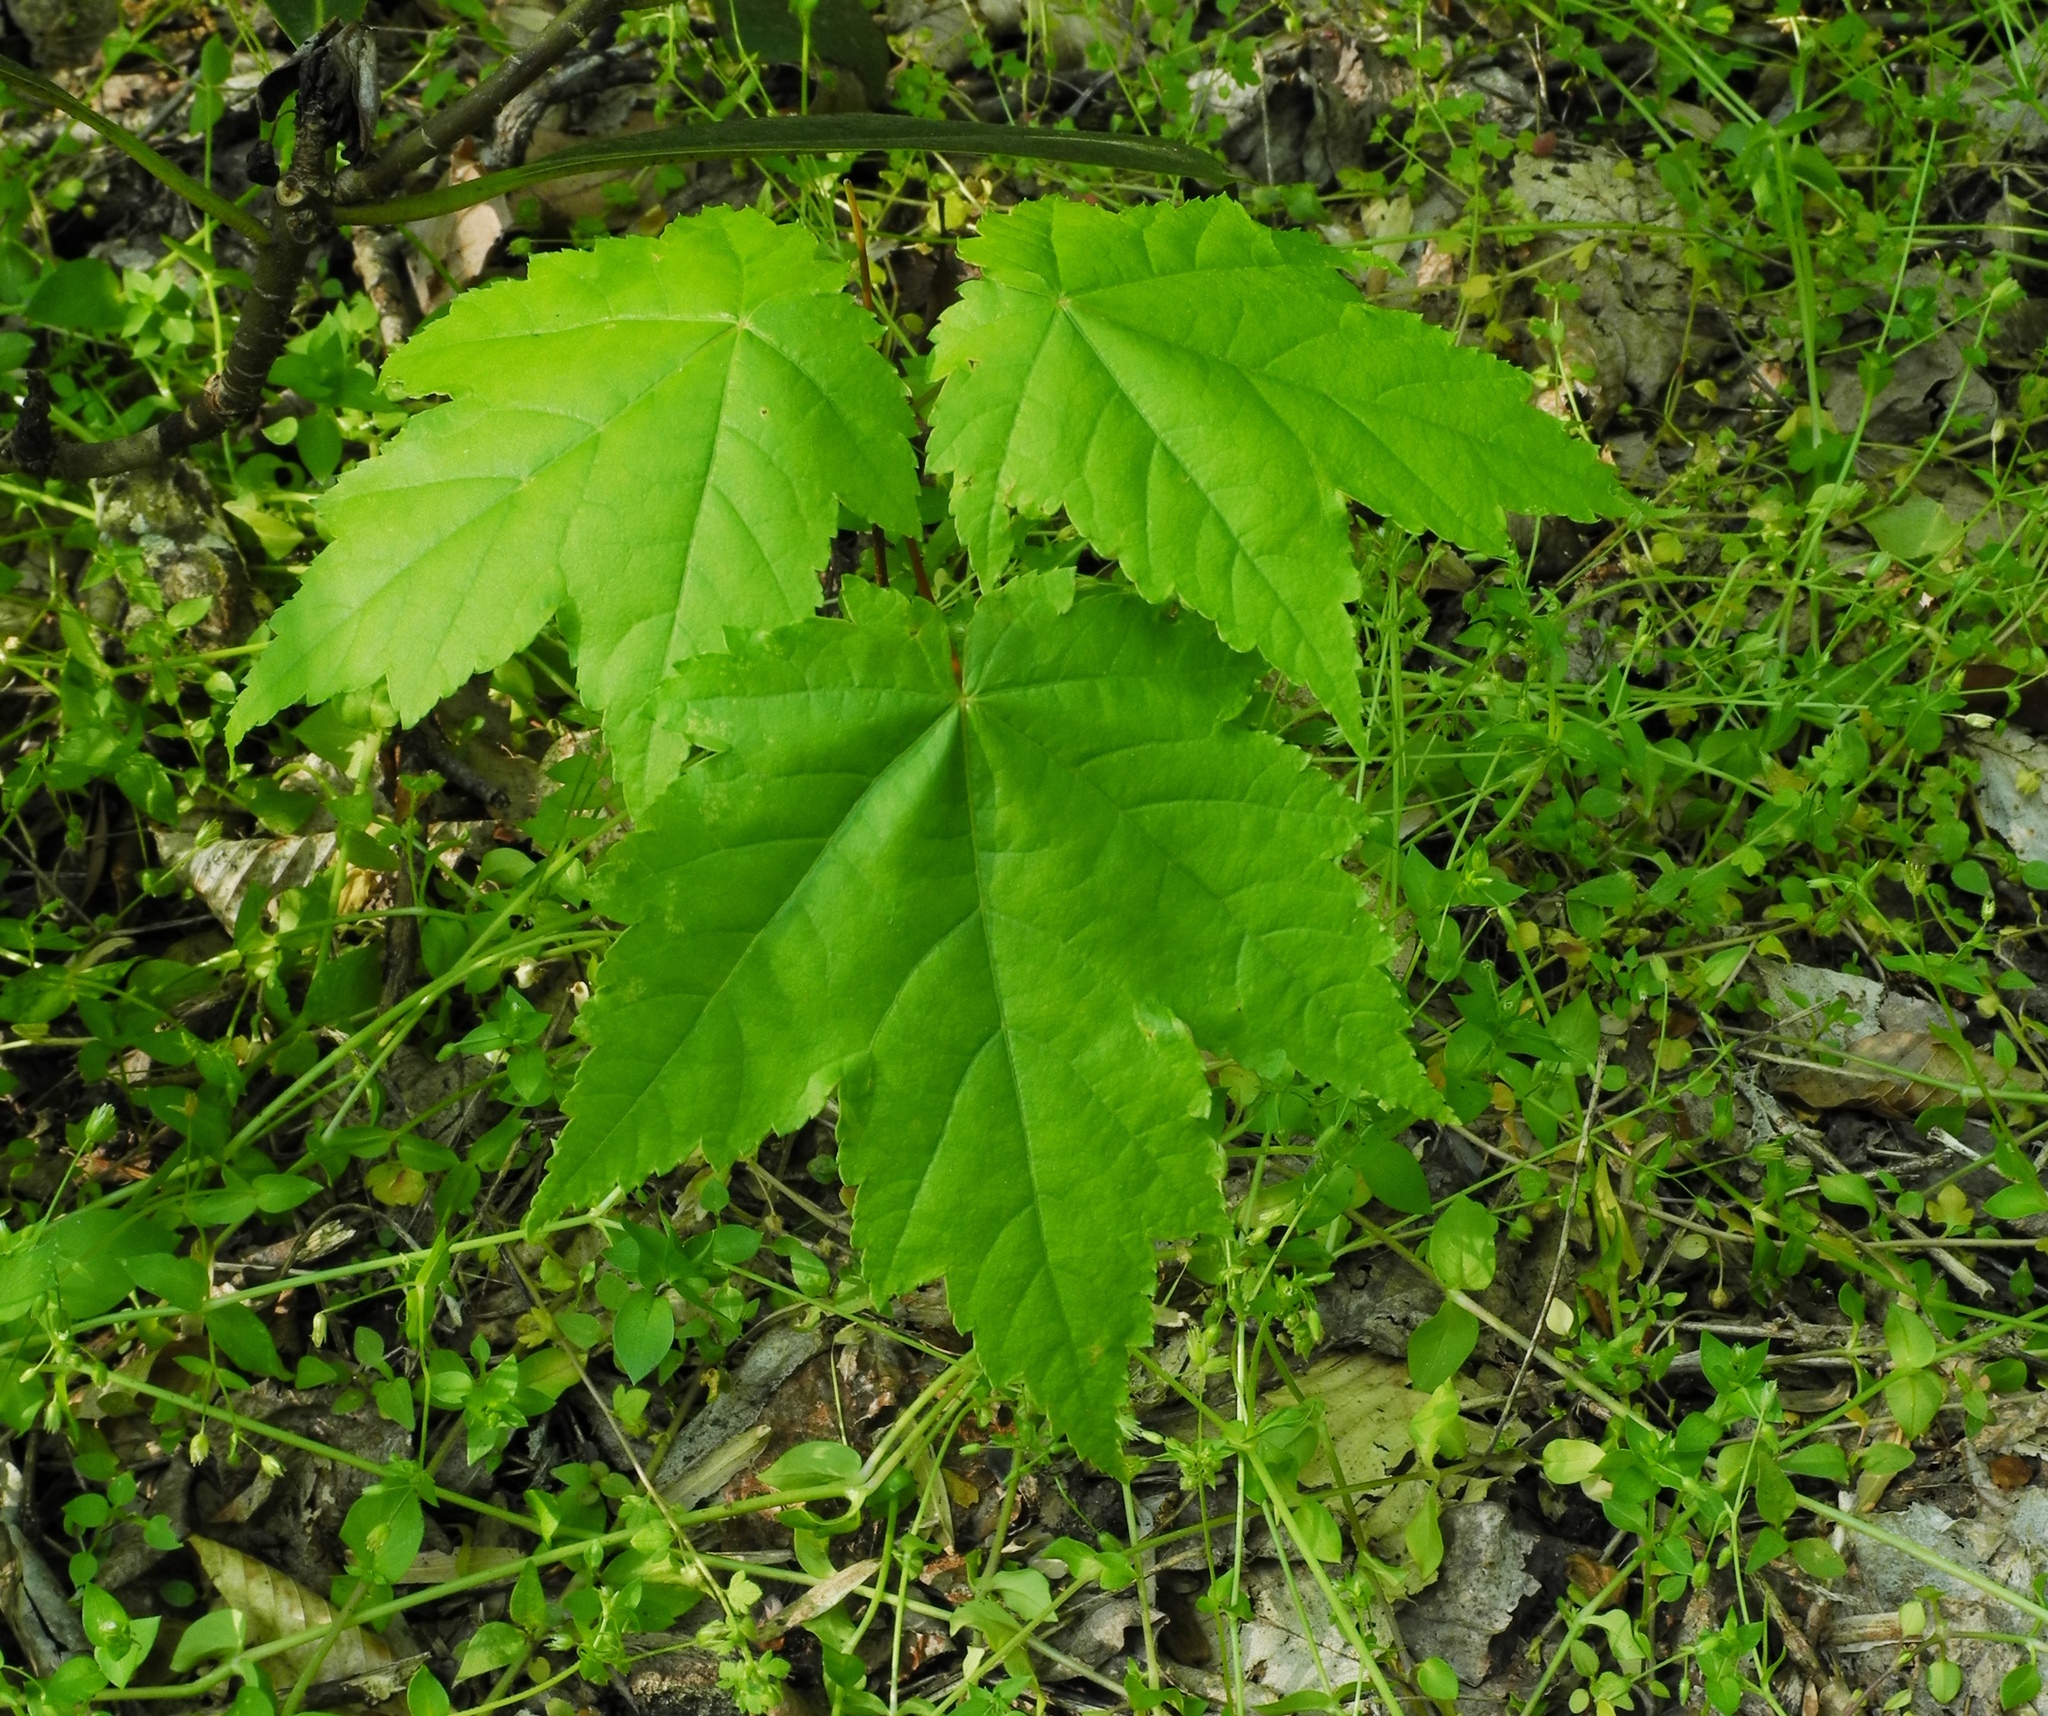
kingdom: Plantae
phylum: Tracheophyta
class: Magnoliopsida
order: Sapindales
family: Sapindaceae
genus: Acer
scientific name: Acer rubrum
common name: Red maple
